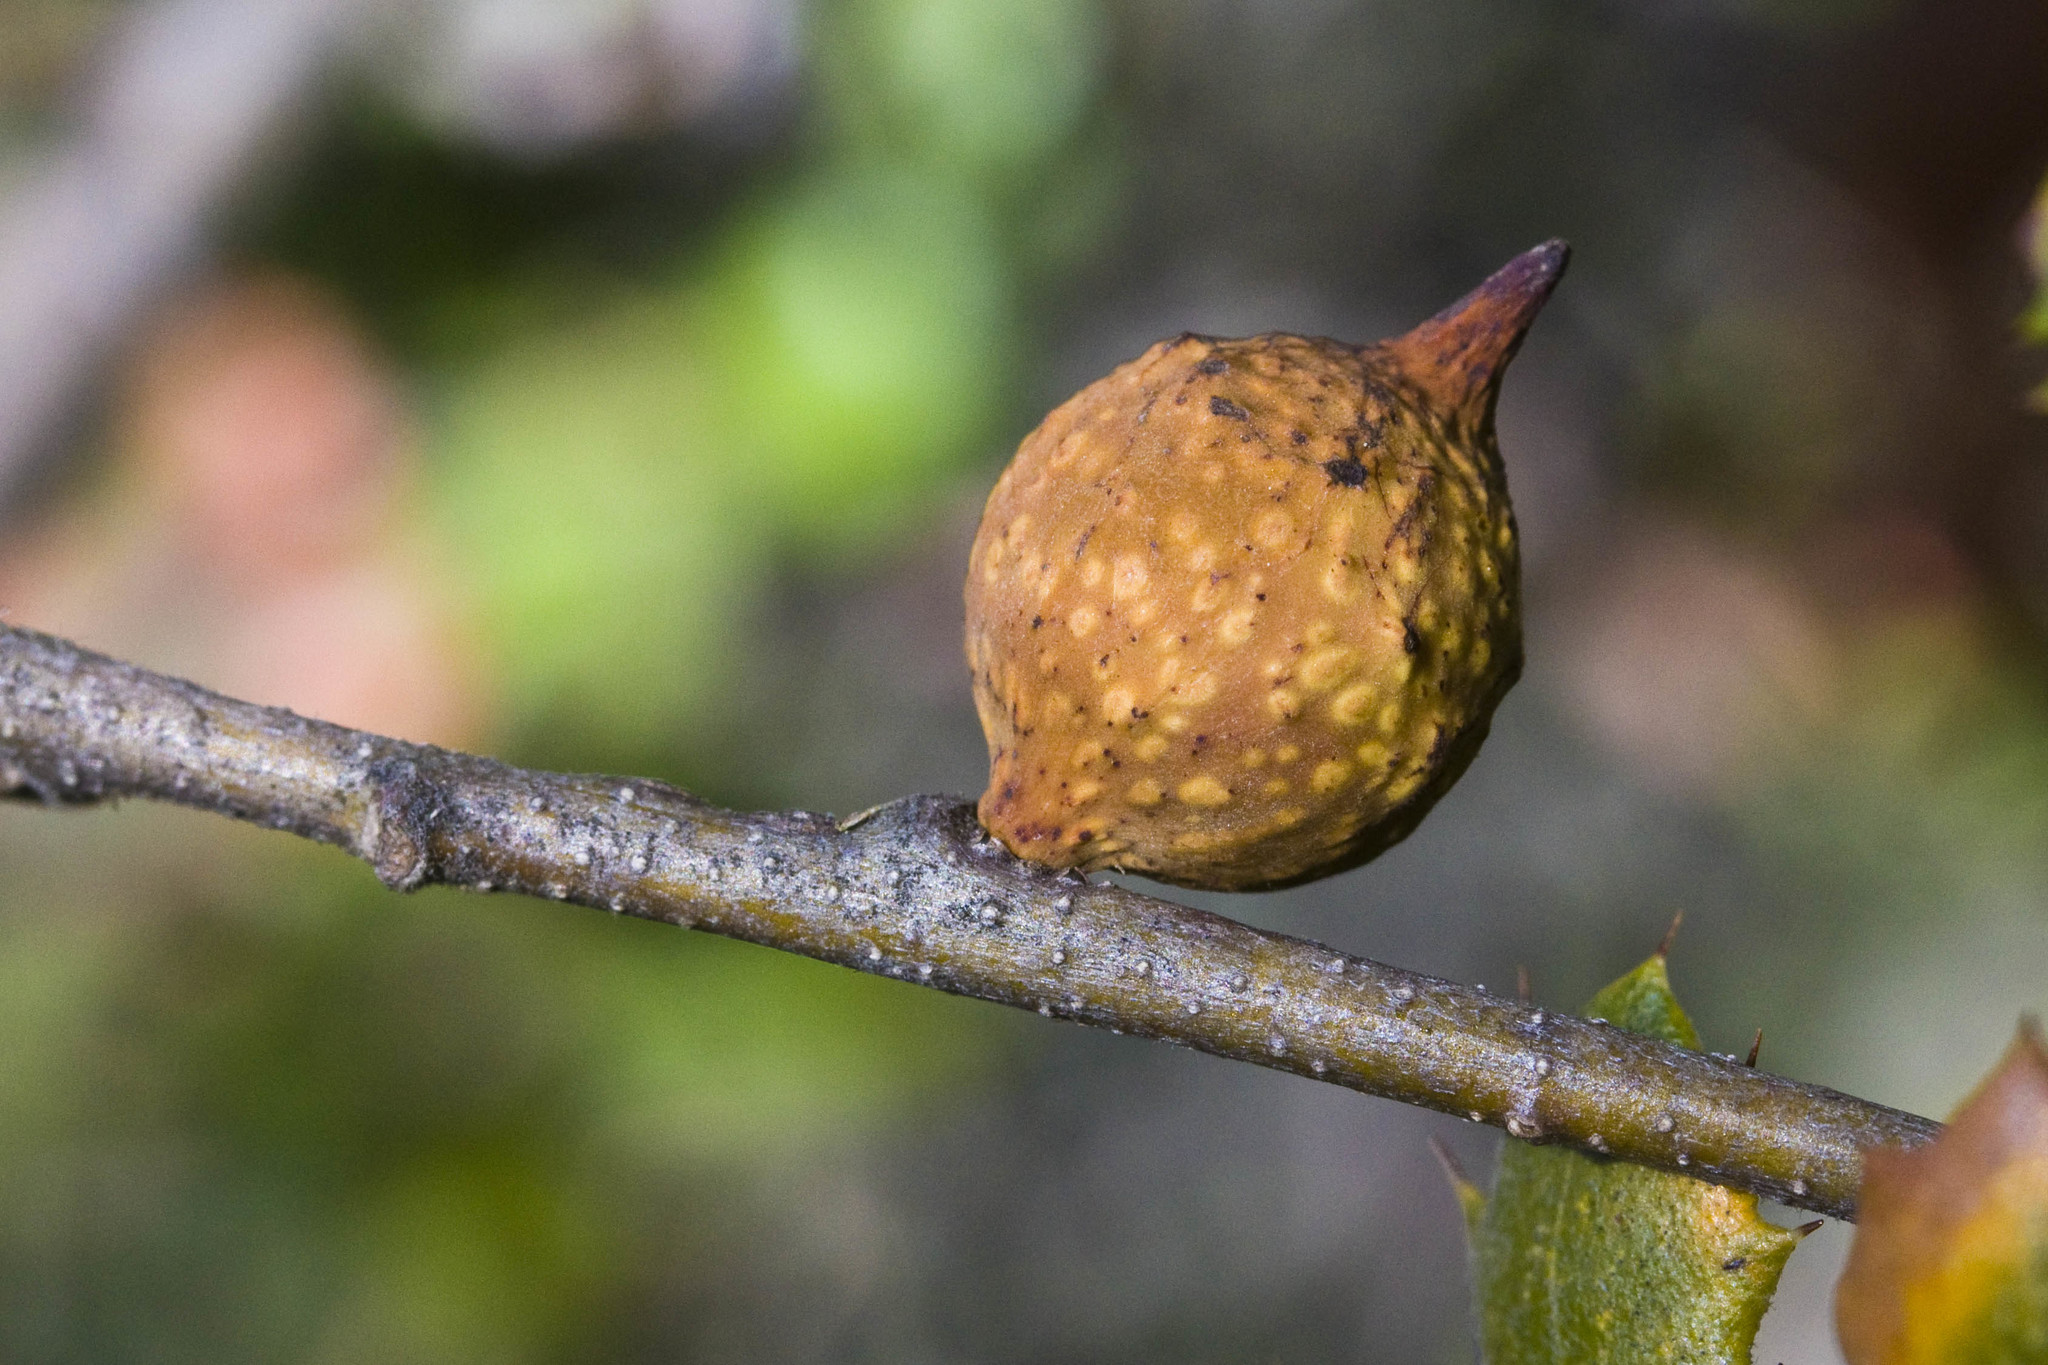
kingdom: Animalia
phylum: Arthropoda
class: Insecta
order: Hymenoptera
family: Cynipidae
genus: Burnettweldia
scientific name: Burnettweldia
